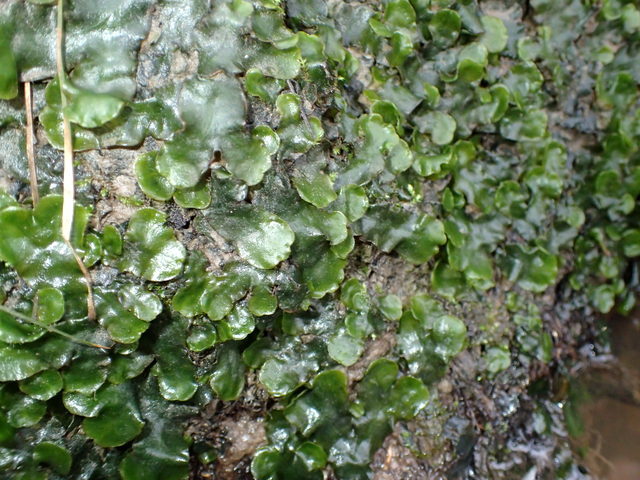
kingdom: Plantae
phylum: Marchantiophyta
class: Marchantiopsida
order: Marchantiales
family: Dumortieraceae
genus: Dumortiera
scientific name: Dumortiera hirsuta
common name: Dumortier's liverwort
